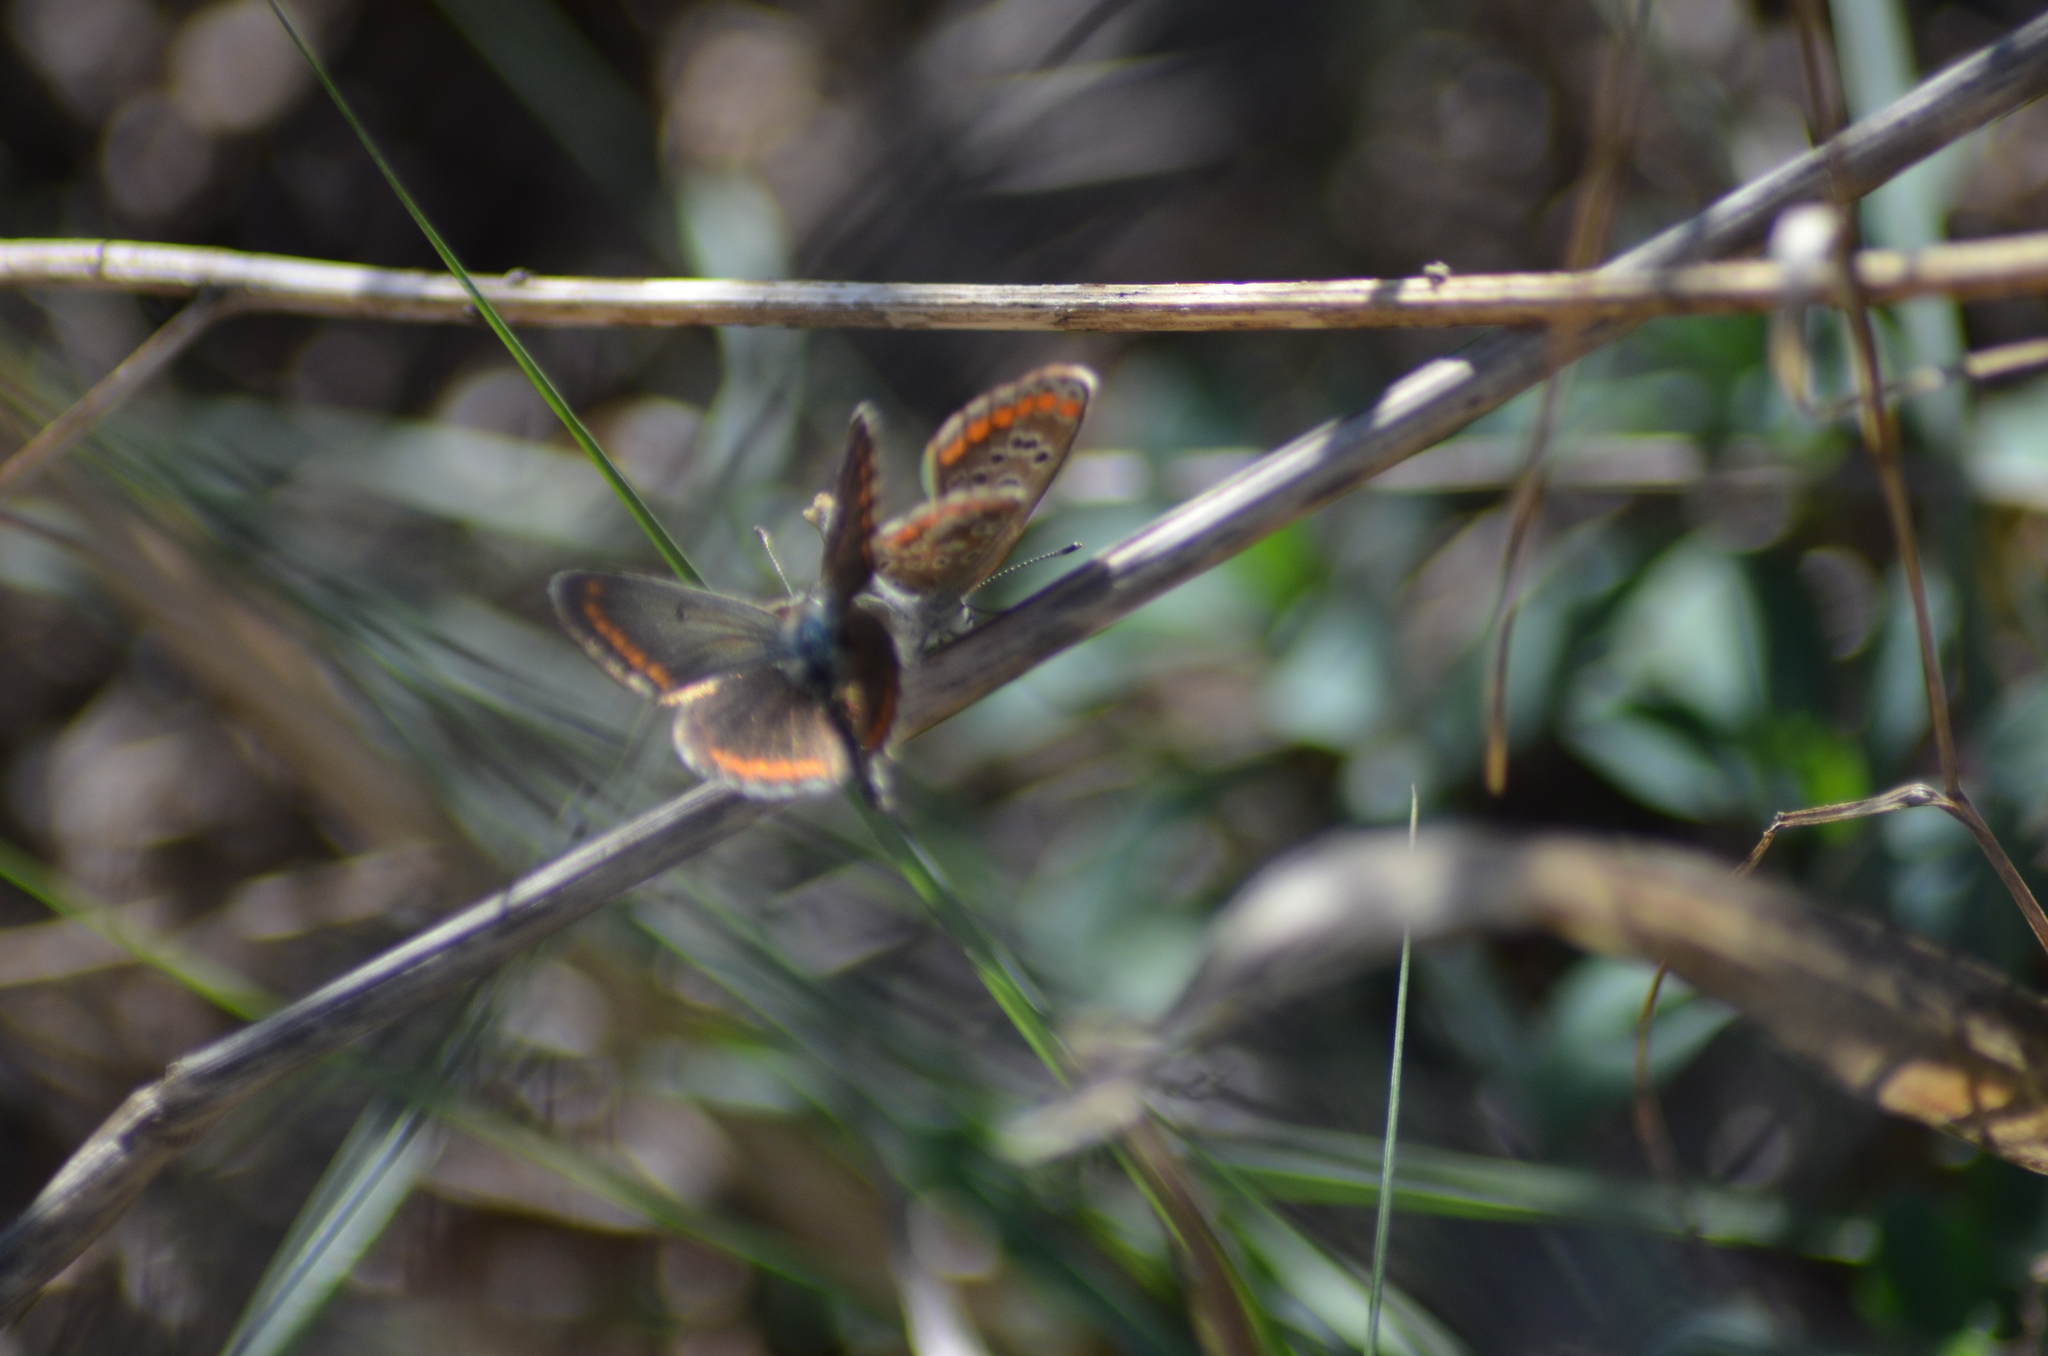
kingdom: Animalia
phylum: Arthropoda
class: Insecta
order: Lepidoptera
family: Lycaenidae
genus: Aricia
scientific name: Aricia cramera
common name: Eschscholtz´s brown  argus
